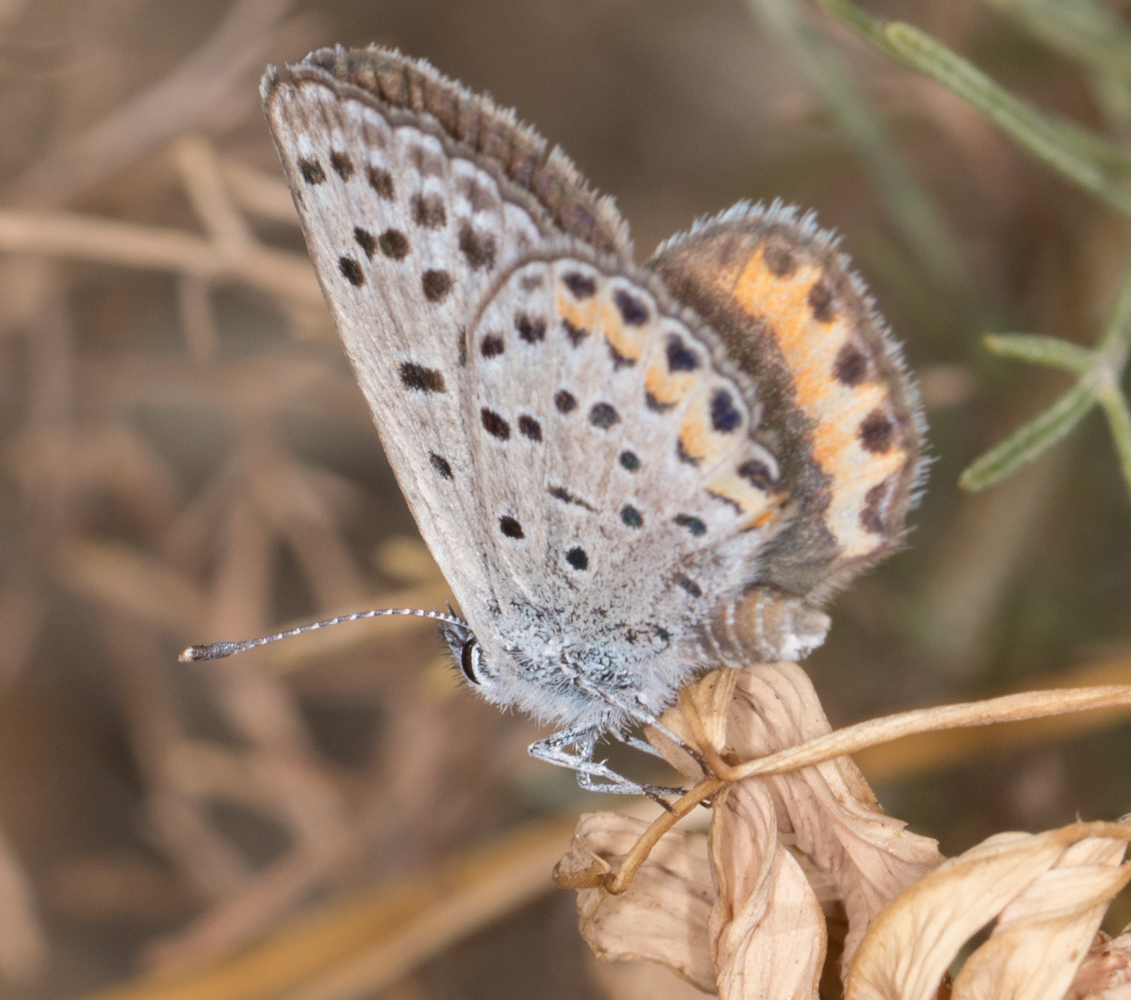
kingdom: Animalia
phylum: Arthropoda
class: Insecta
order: Lepidoptera
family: Lycaenidae
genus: Icaricia
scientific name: Icaricia acmon
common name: Acmon blue
